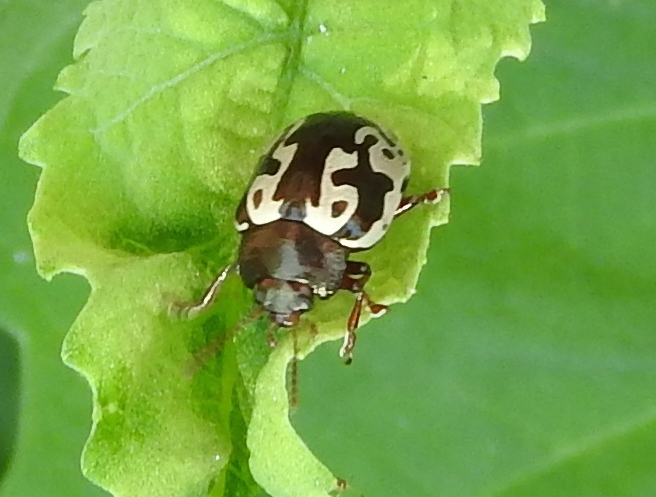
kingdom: Animalia
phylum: Arthropoda
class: Insecta
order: Coleoptera
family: Chrysomelidae
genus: Calligrapha
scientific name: Calligrapha intermedia
